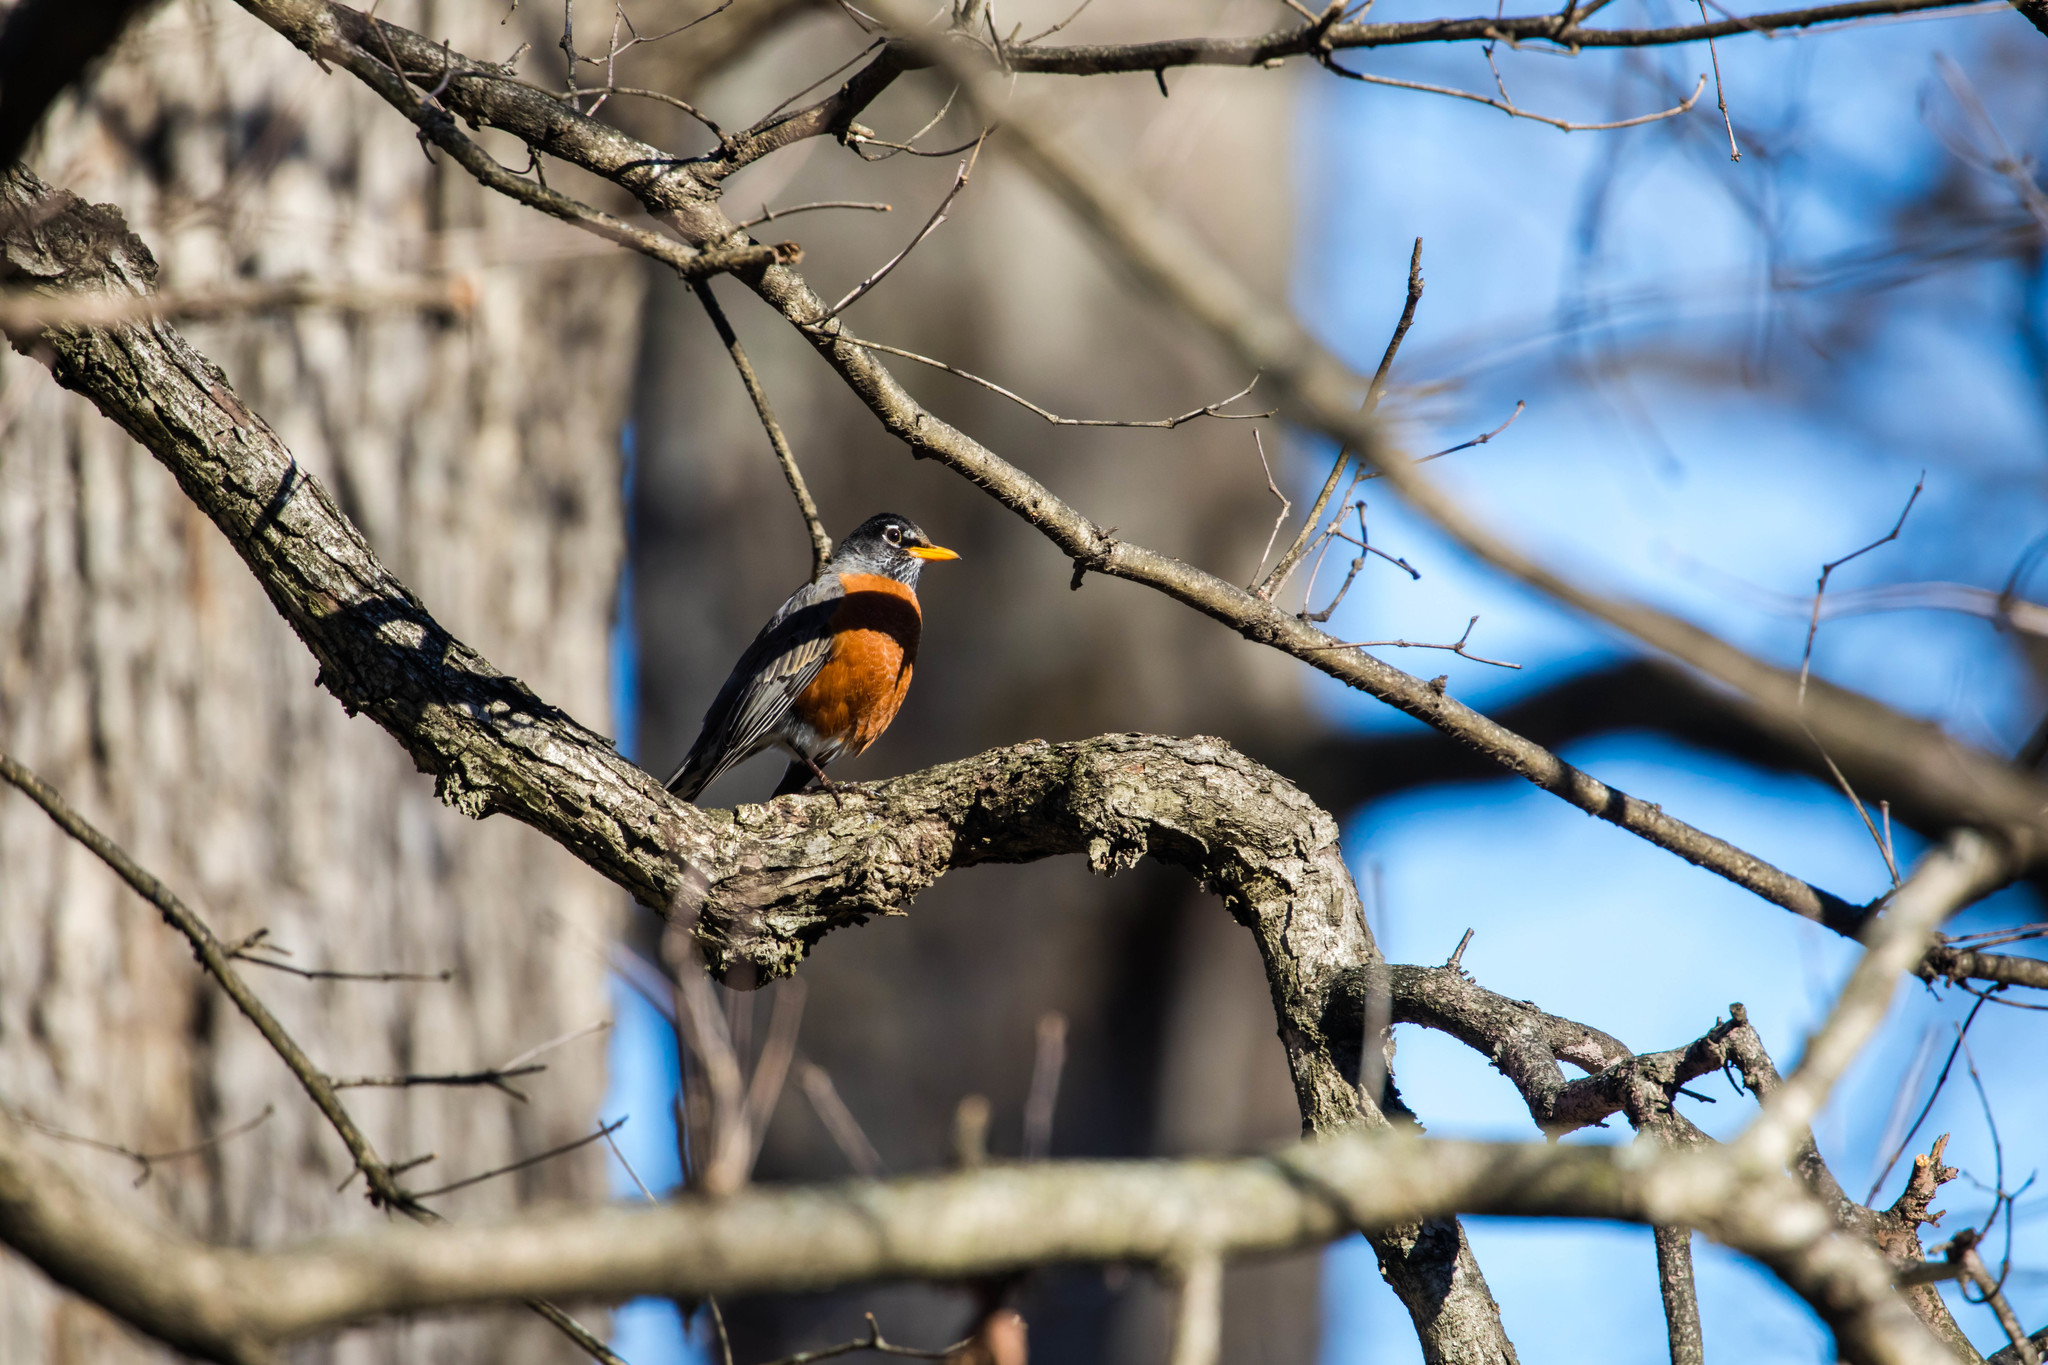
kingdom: Animalia
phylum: Chordata
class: Aves
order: Passeriformes
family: Turdidae
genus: Turdus
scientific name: Turdus migratorius
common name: American robin
